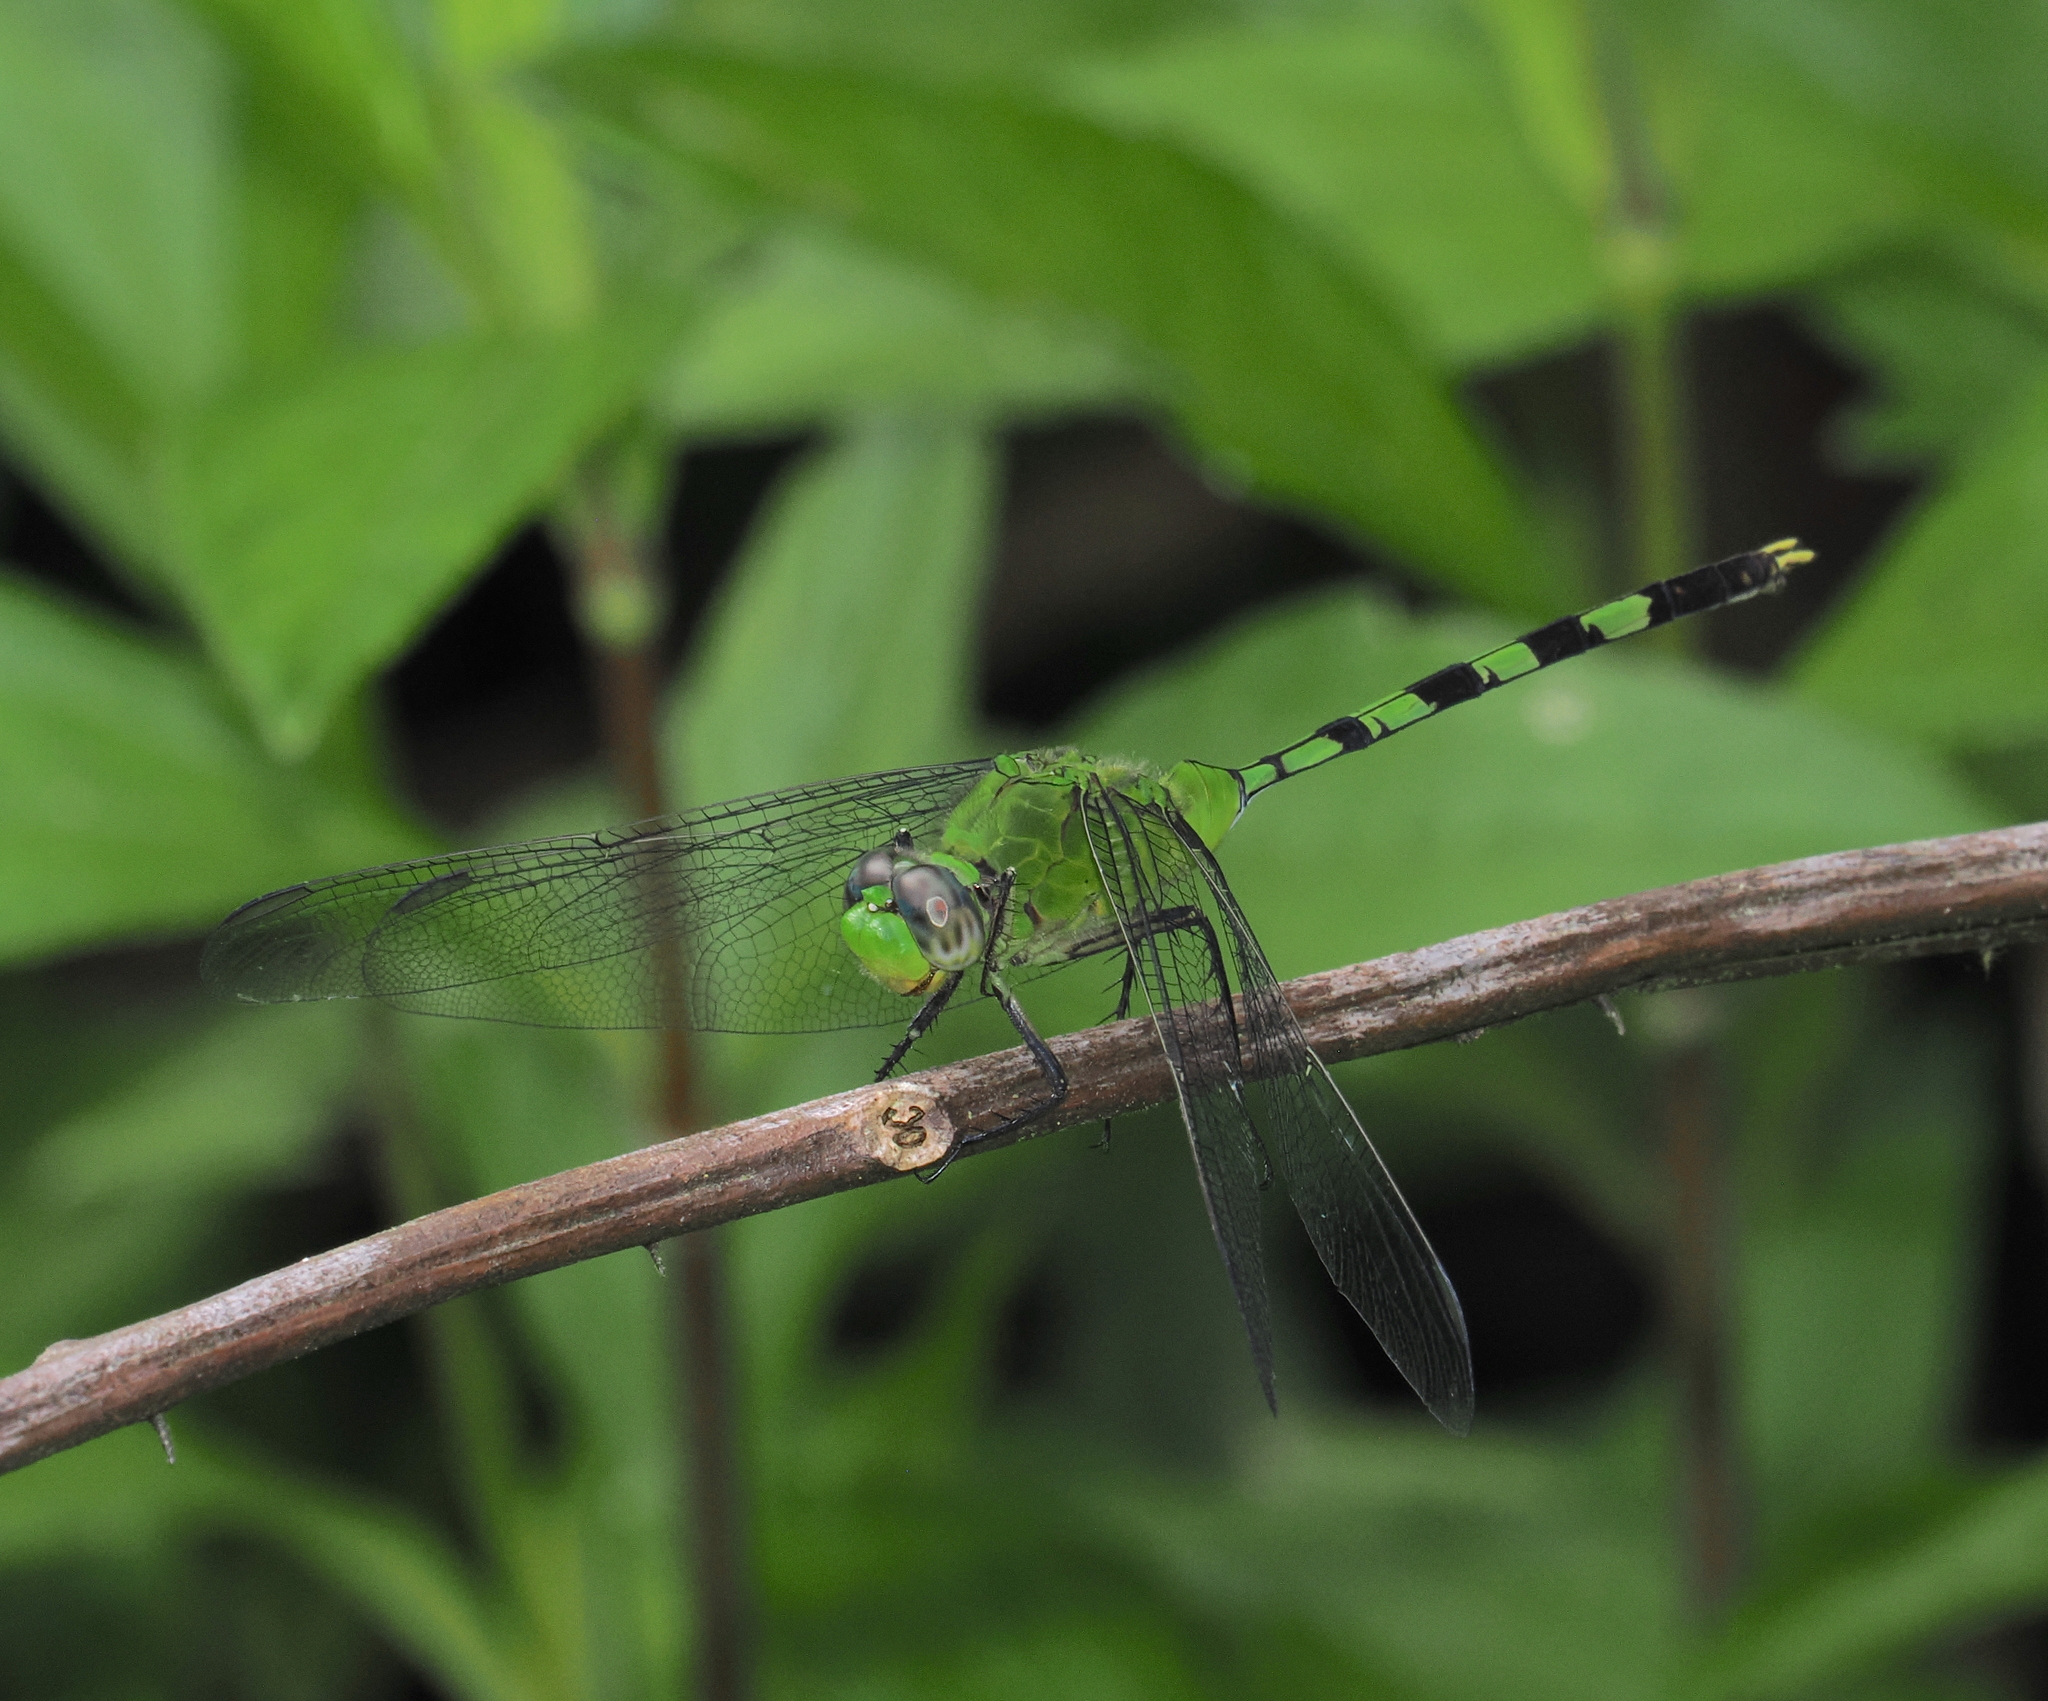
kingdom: Animalia
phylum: Arthropoda
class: Insecta
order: Odonata
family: Libellulidae
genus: Erythemis
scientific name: Erythemis vesiculosa
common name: Great pondhawk
